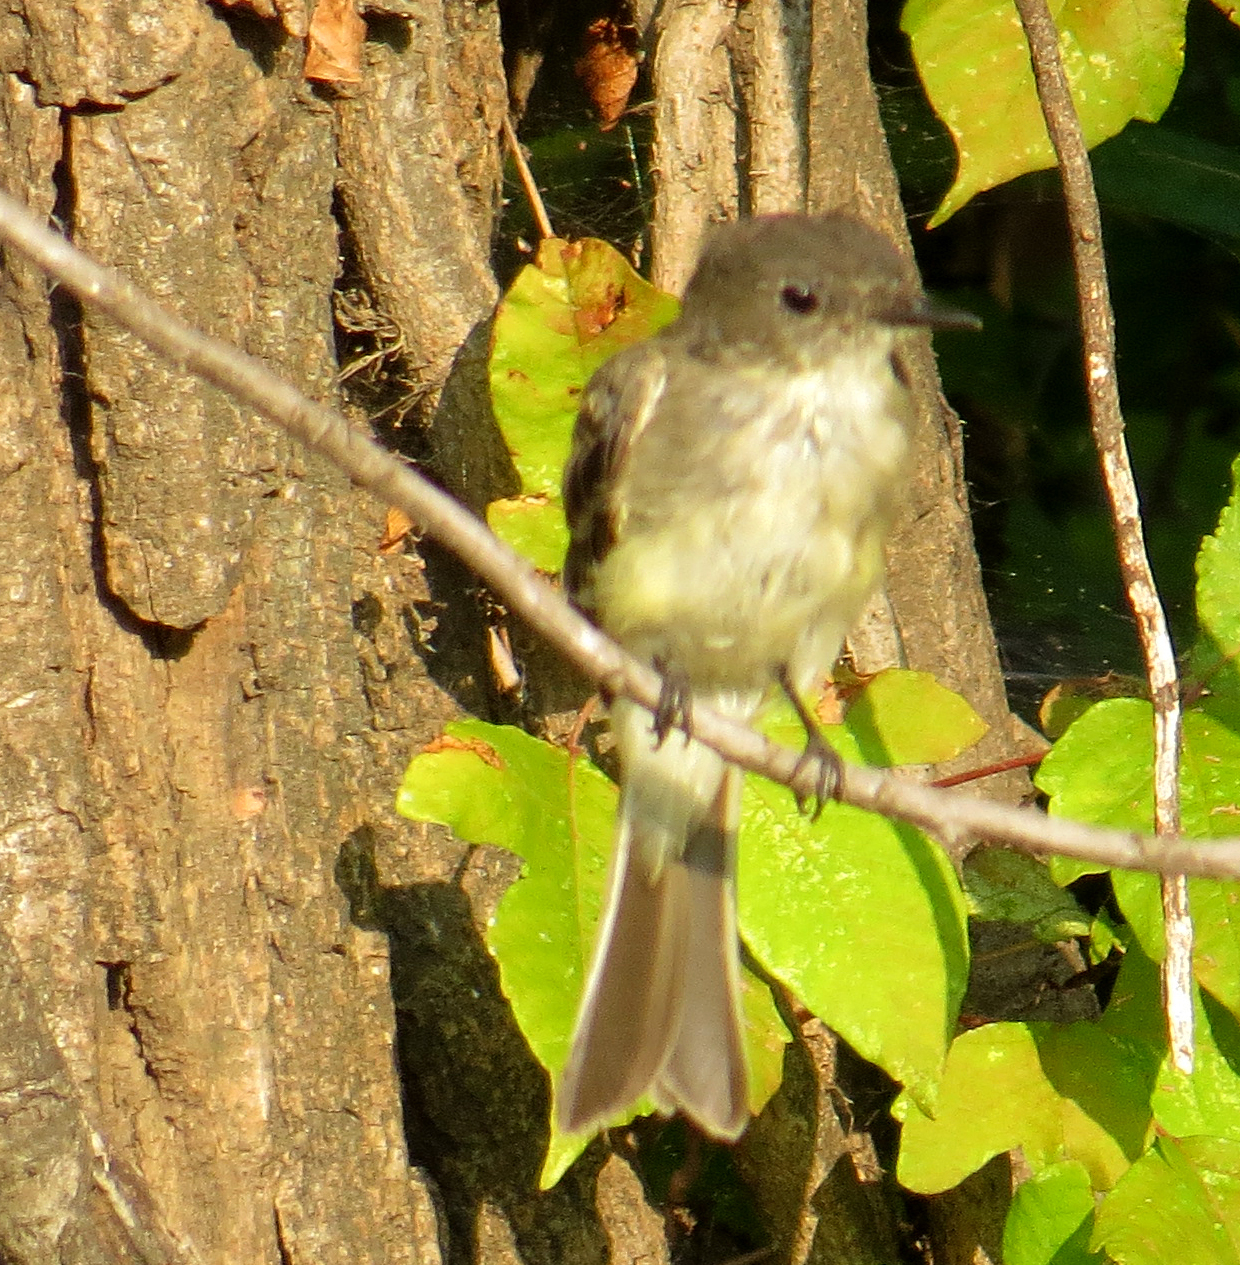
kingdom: Animalia
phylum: Chordata
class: Aves
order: Passeriformes
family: Tyrannidae
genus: Sayornis
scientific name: Sayornis phoebe
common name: Eastern phoebe
